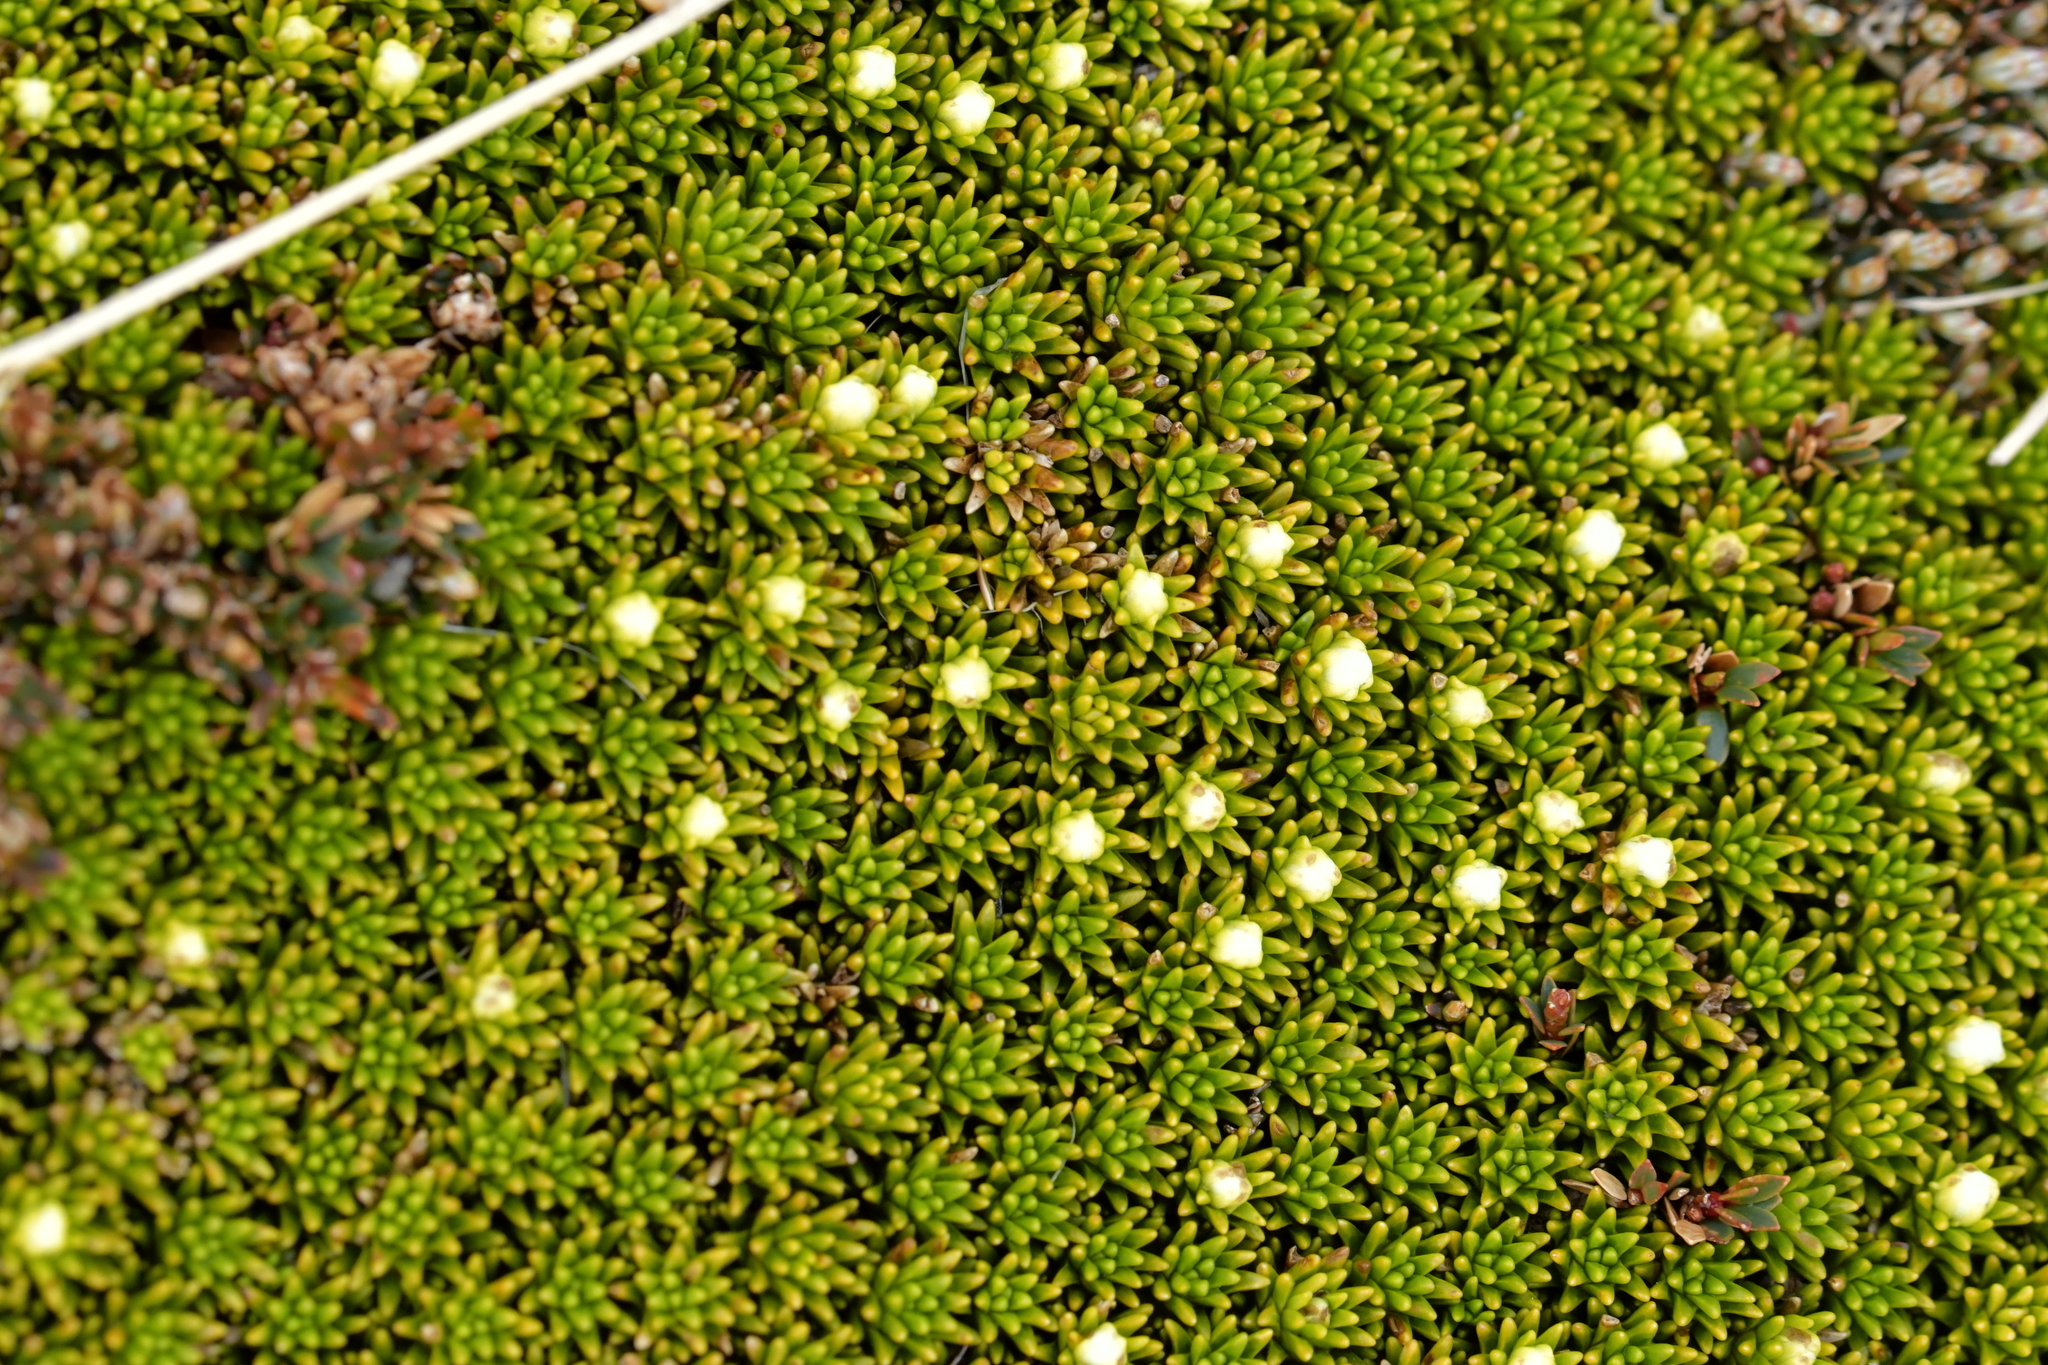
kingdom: Plantae
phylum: Tracheophyta
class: Magnoliopsida
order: Asterales
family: Stylidiaceae
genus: Phyllachne
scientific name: Phyllachne colensoi
